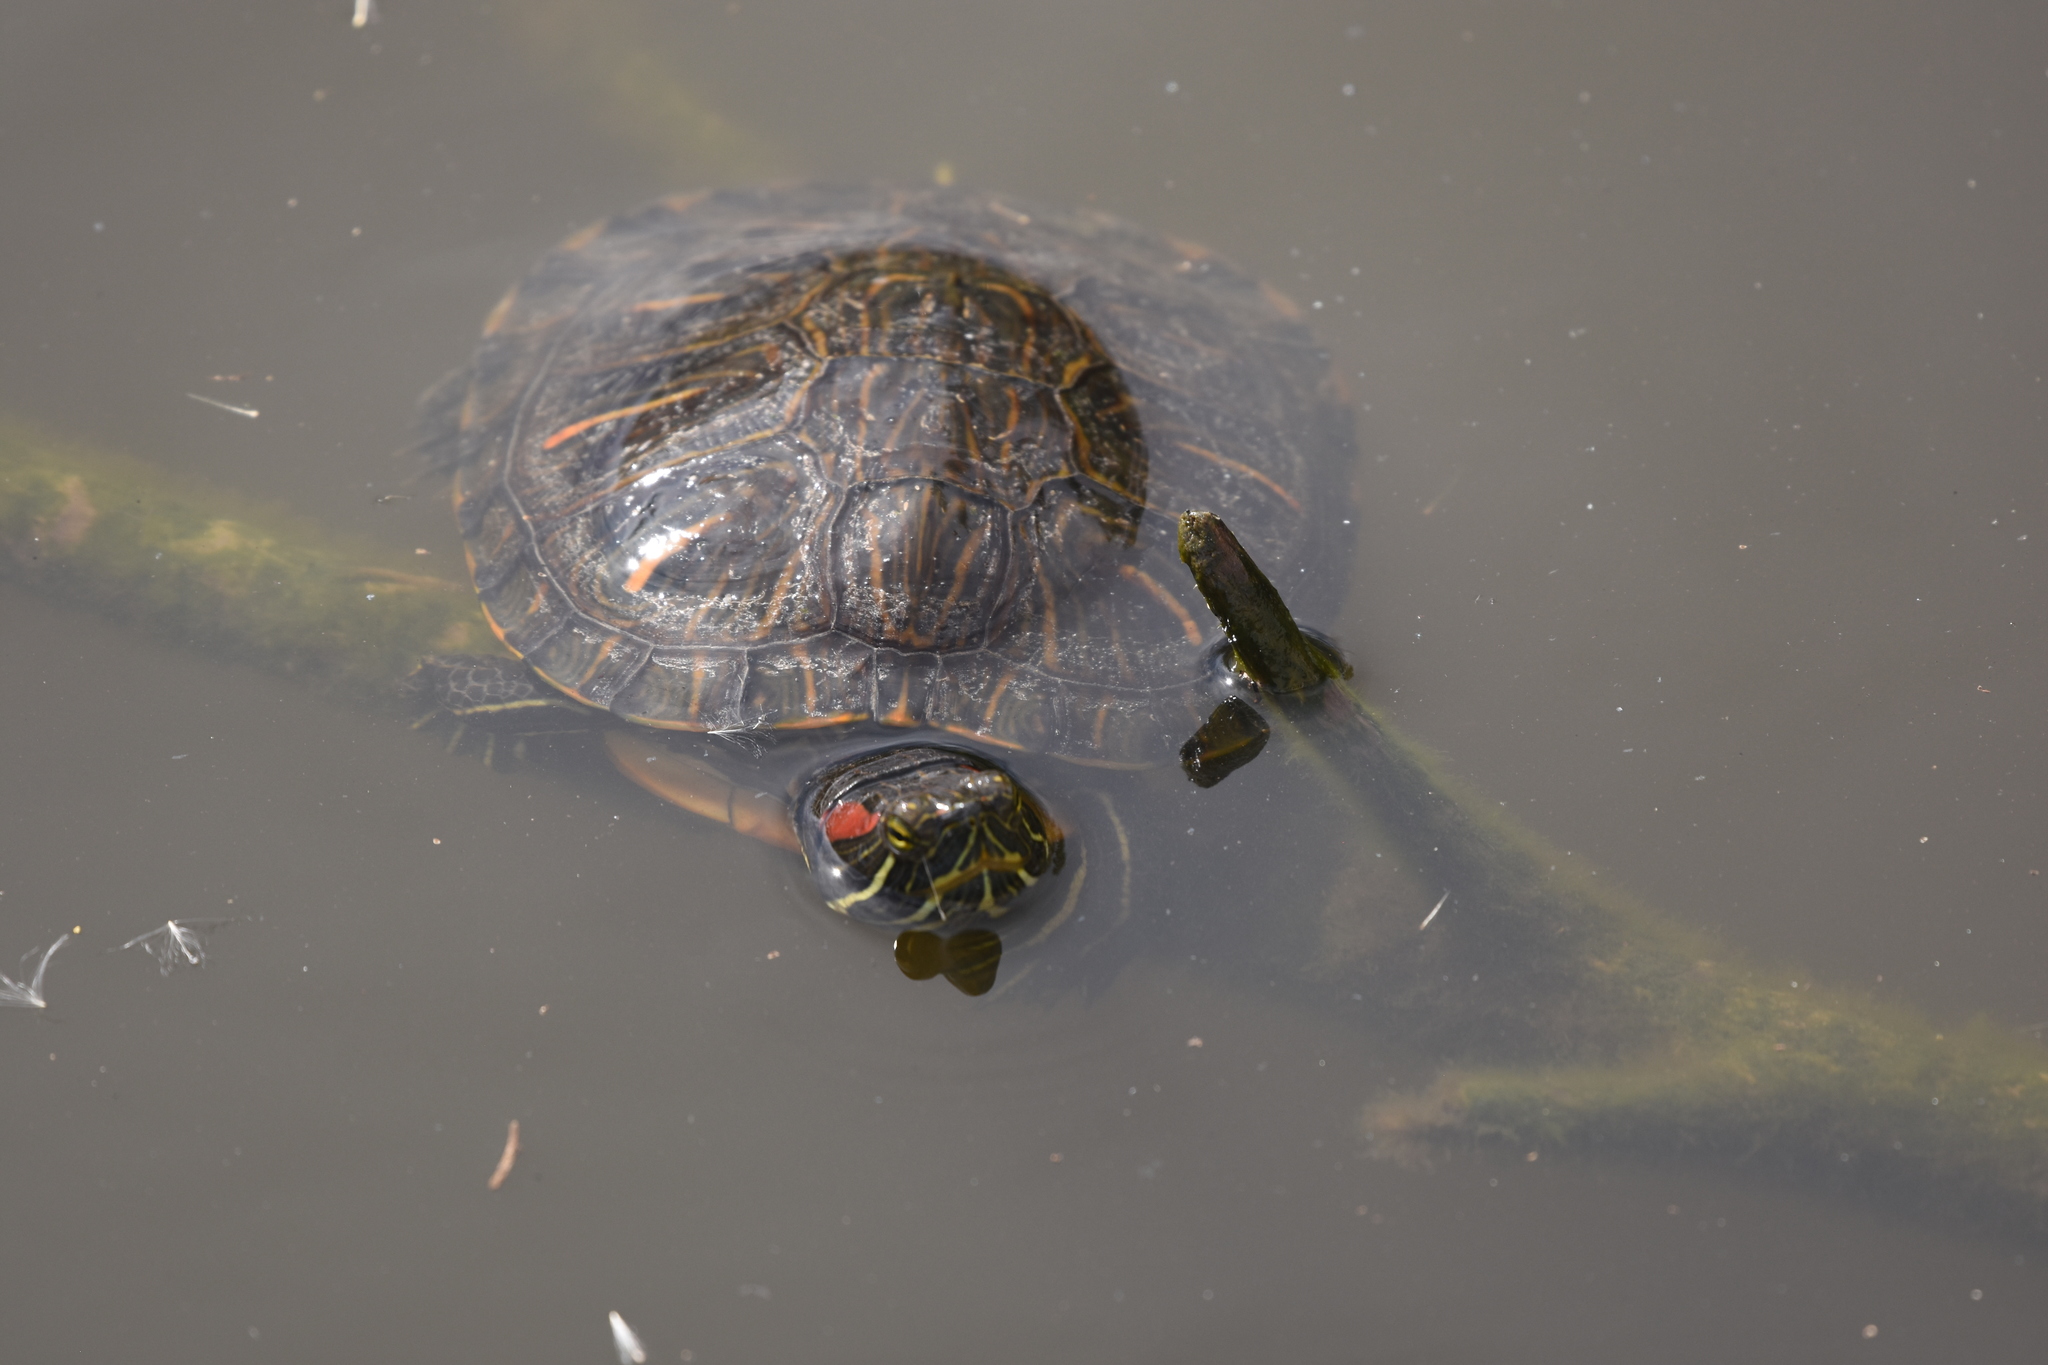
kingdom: Animalia
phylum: Chordata
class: Testudines
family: Emydidae
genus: Trachemys
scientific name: Trachemys scripta
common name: Slider
